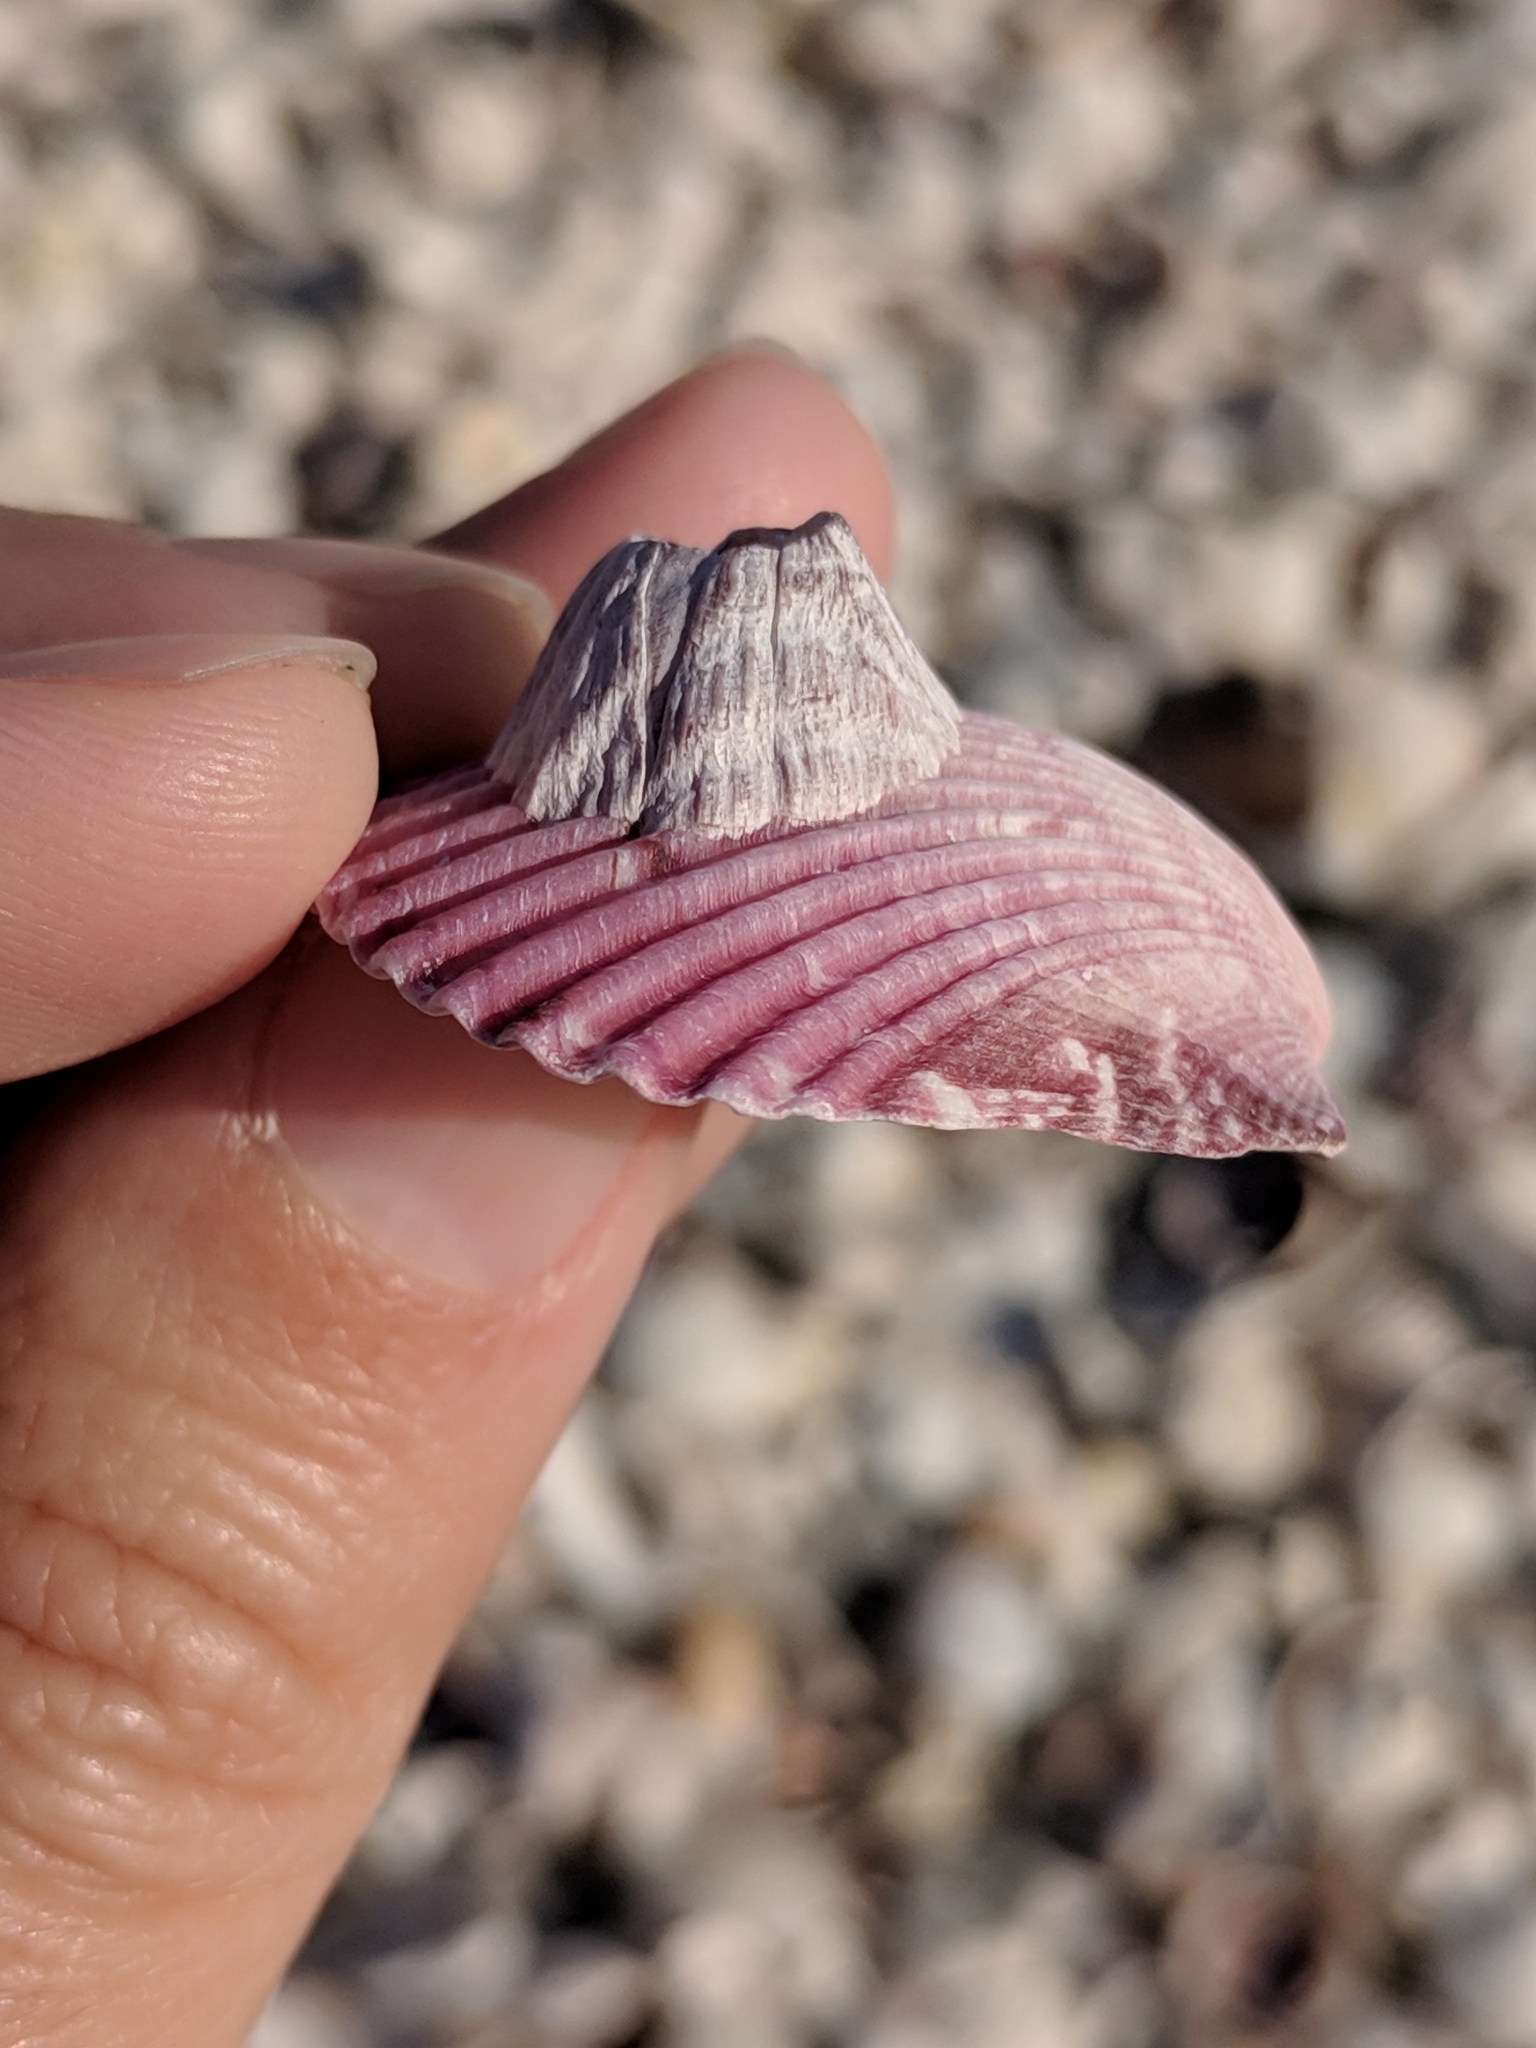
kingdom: Animalia
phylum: Mollusca
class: Bivalvia
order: Pectinida
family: Pectinidae
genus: Argopecten
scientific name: Argopecten gibbus
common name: Atlantic calico scallop
